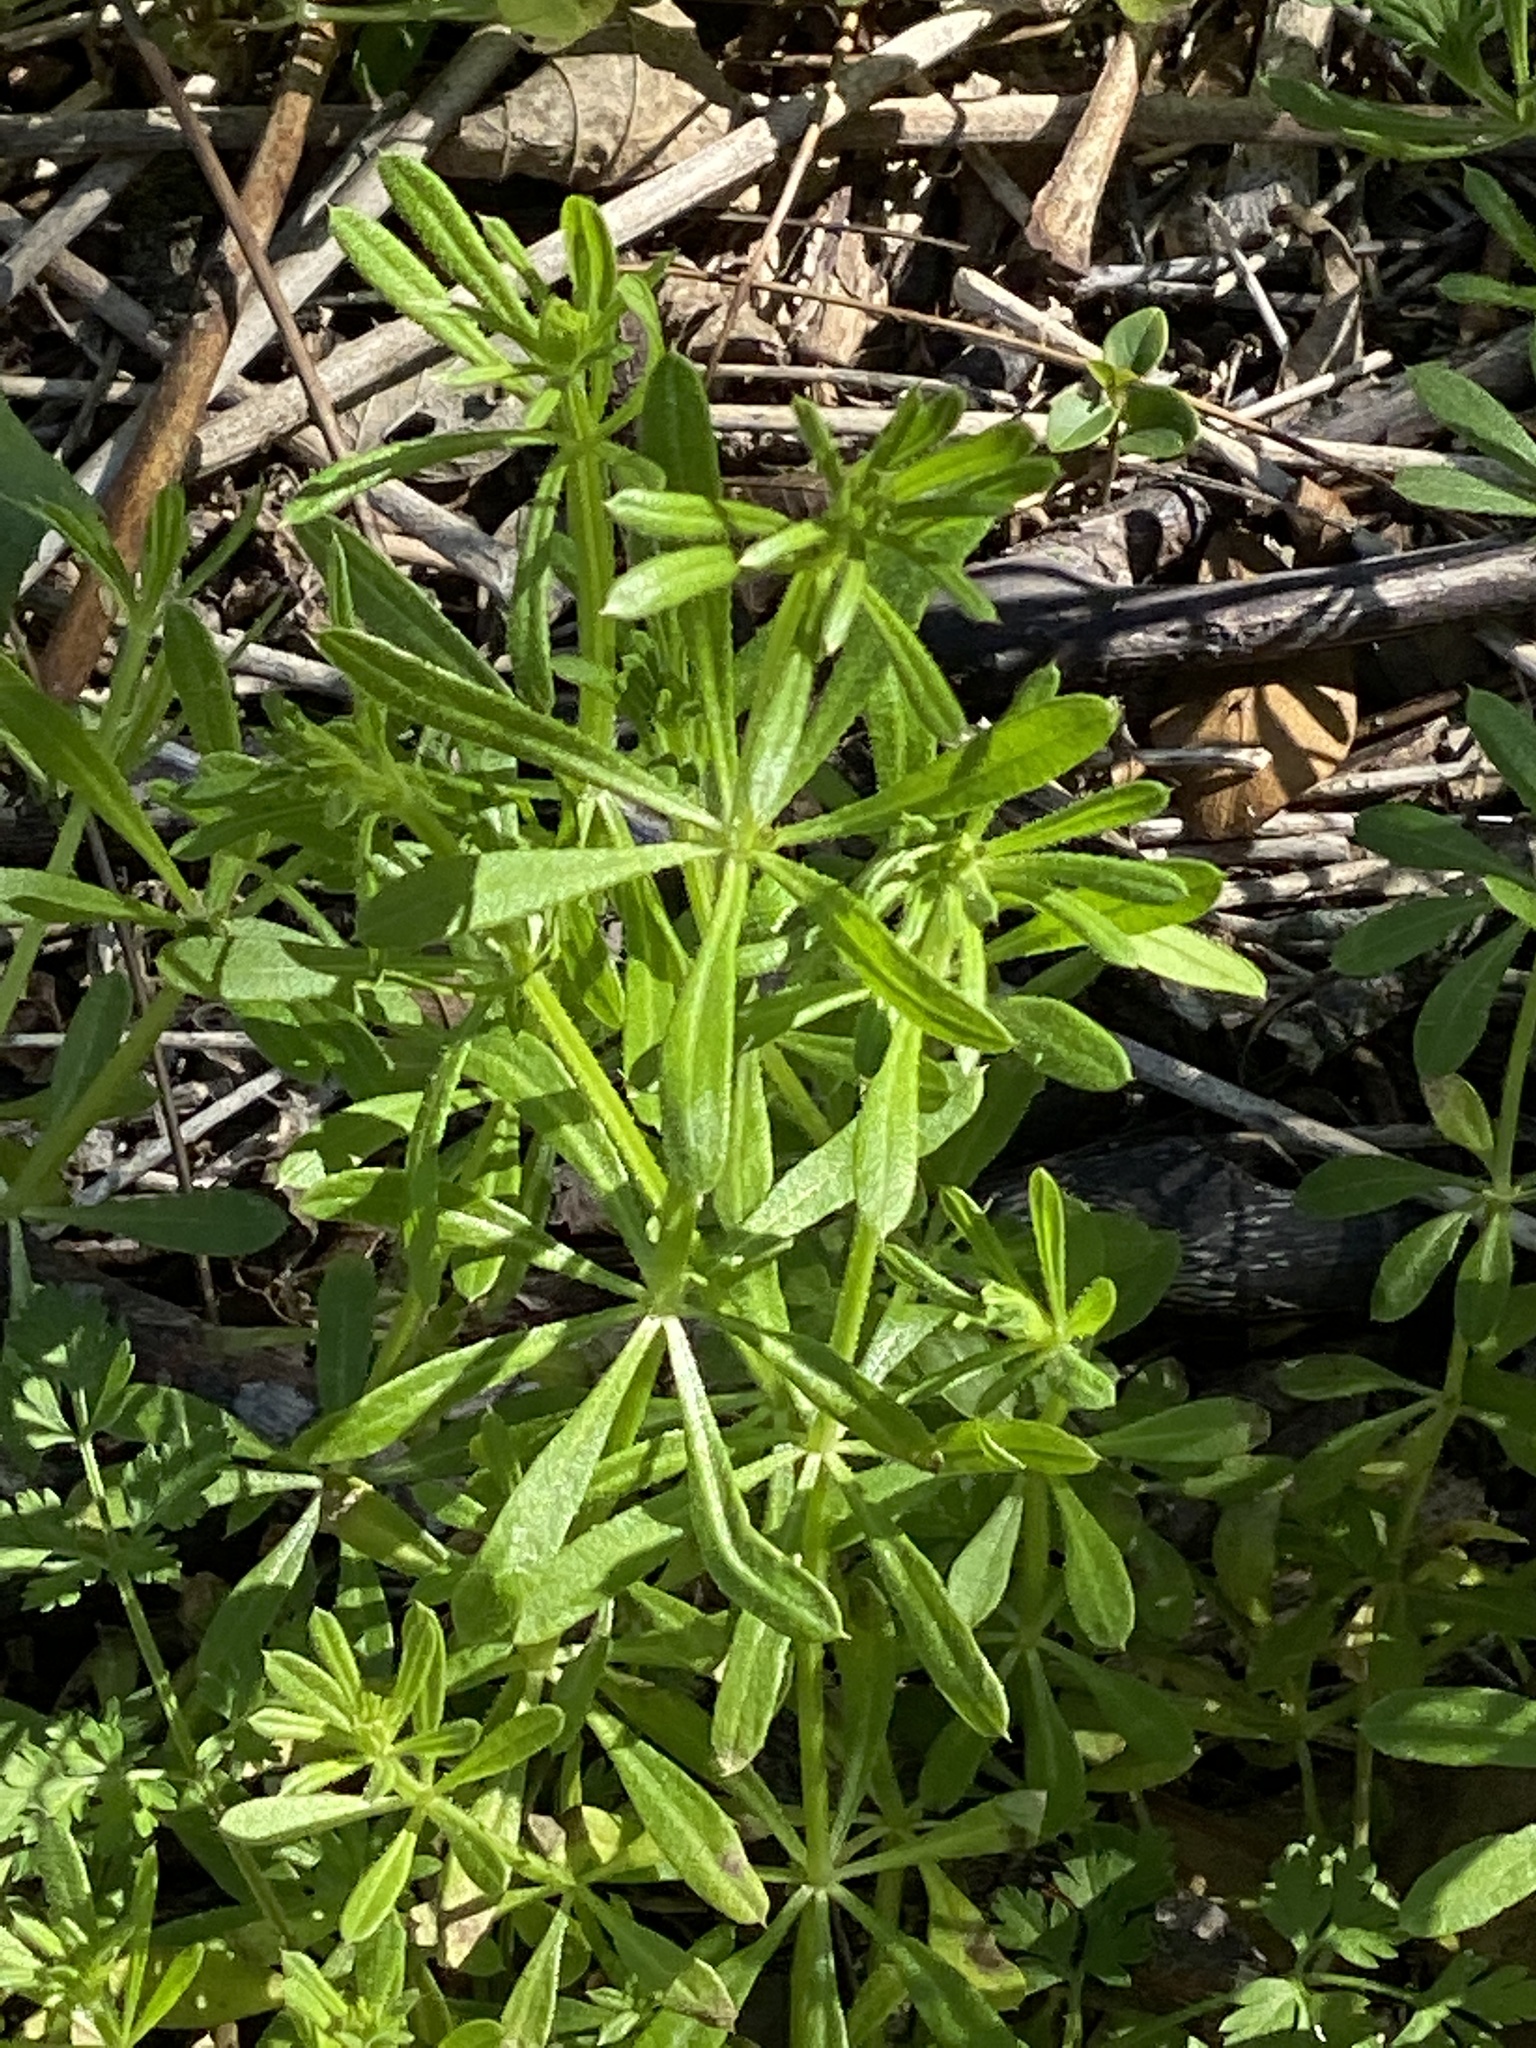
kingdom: Plantae
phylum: Tracheophyta
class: Magnoliopsida
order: Gentianales
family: Rubiaceae
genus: Galium
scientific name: Galium aparine
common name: Cleavers
